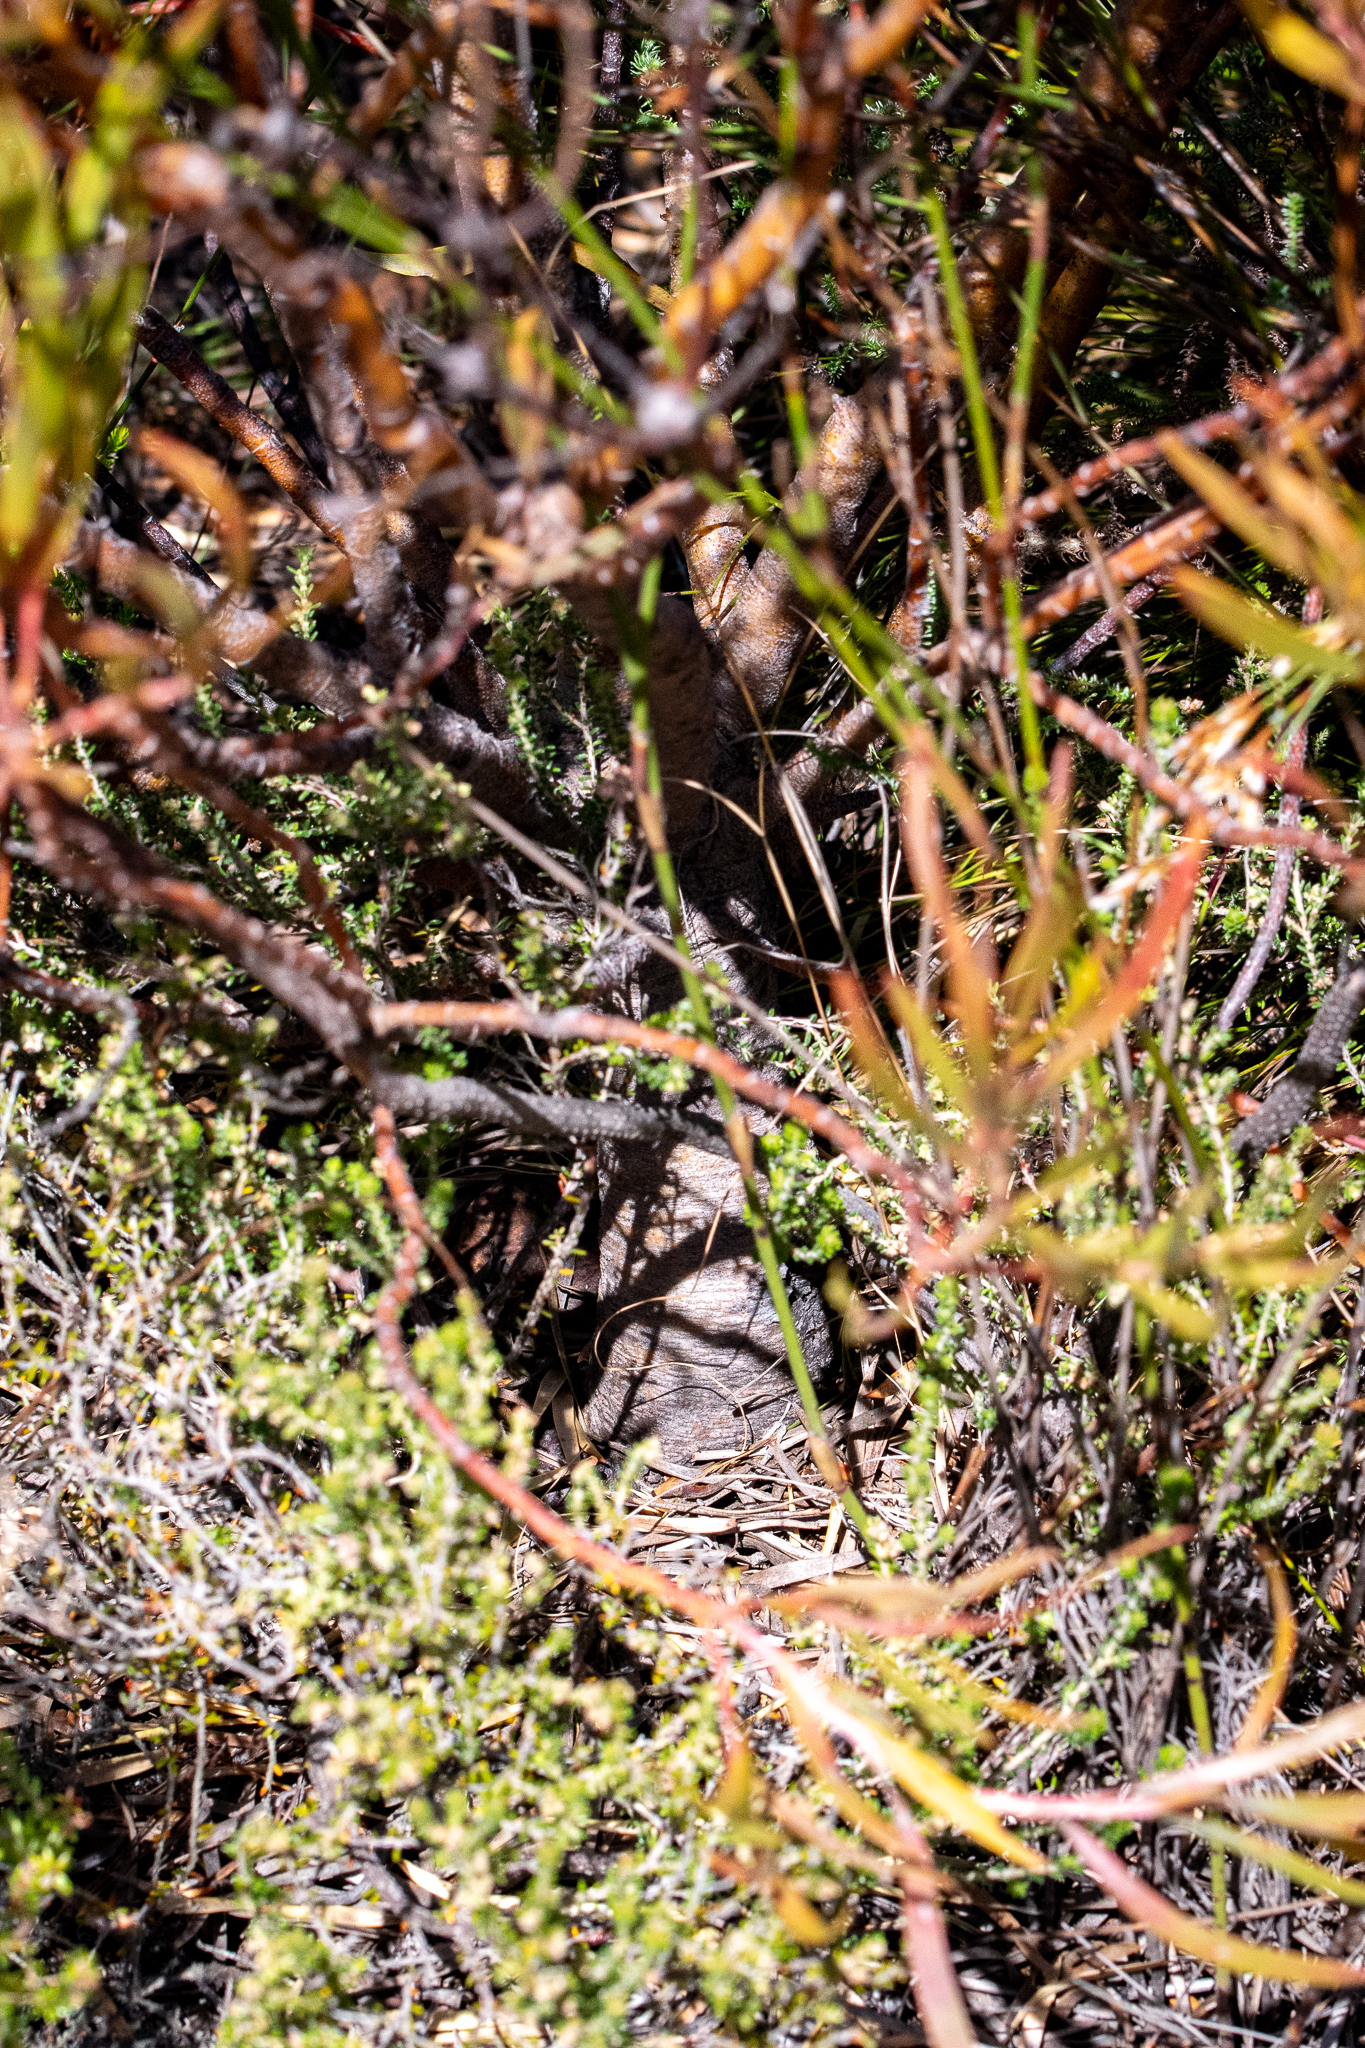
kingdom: Plantae
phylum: Tracheophyta
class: Magnoliopsida
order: Proteales
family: Proteaceae
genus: Leucadendron
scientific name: Leucadendron xanthoconus
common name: Sickle-leaf conebush
